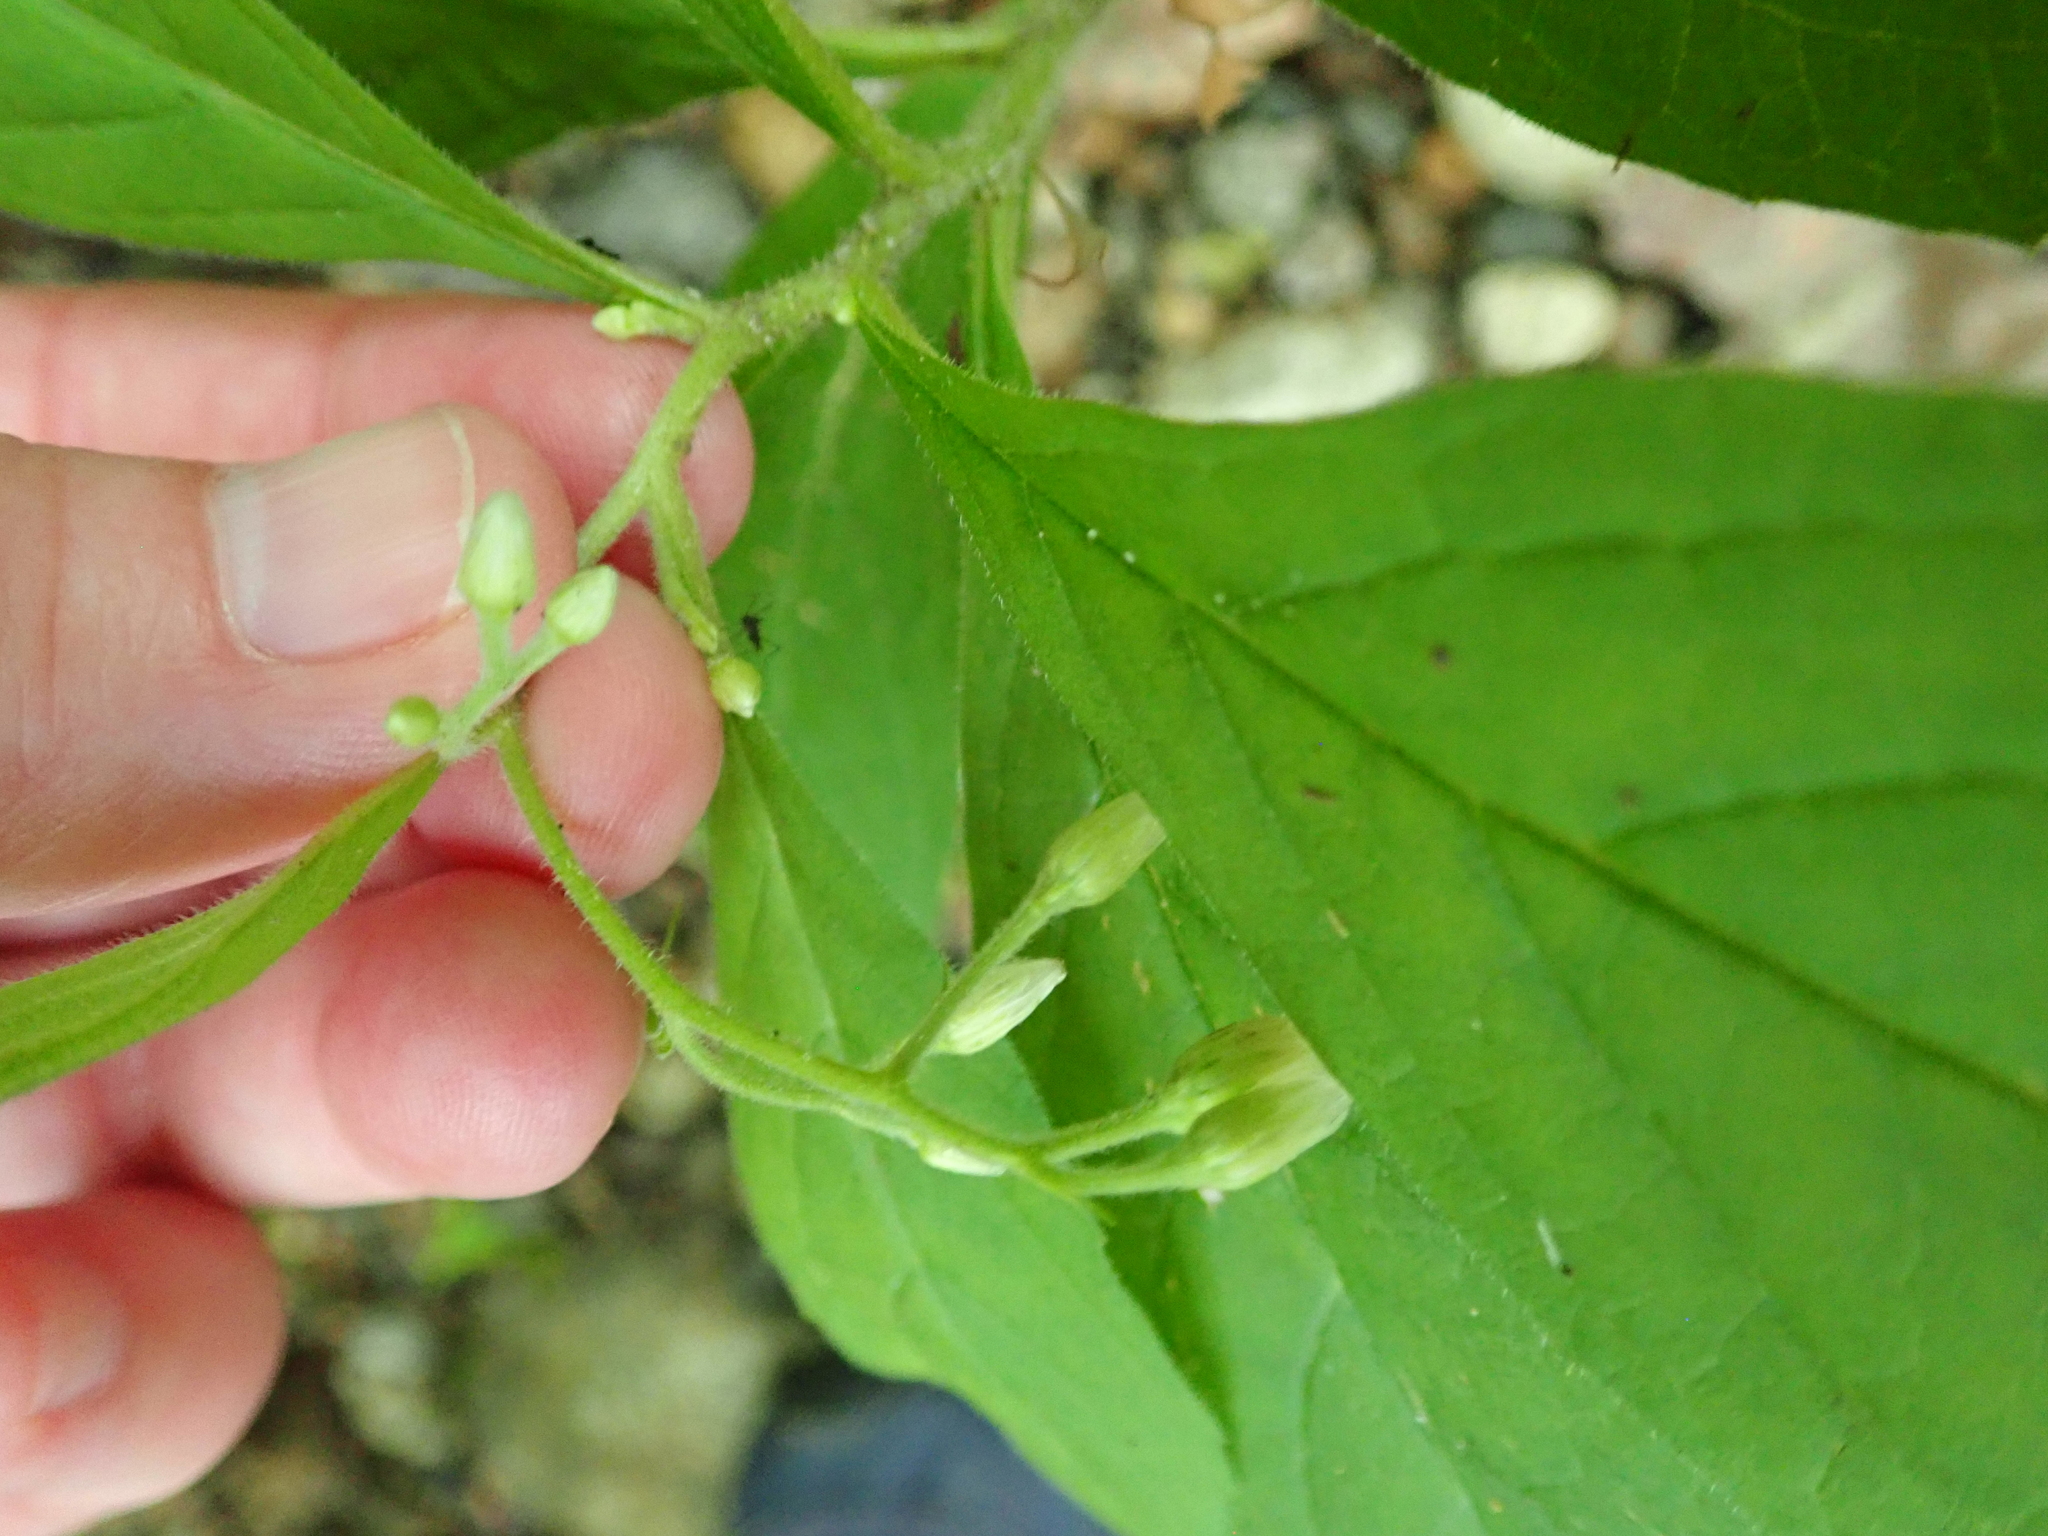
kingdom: Plantae
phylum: Tracheophyta
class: Magnoliopsida
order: Asterales
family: Asteraceae
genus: Oclemena
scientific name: Oclemena acuminata
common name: Mountain aster
